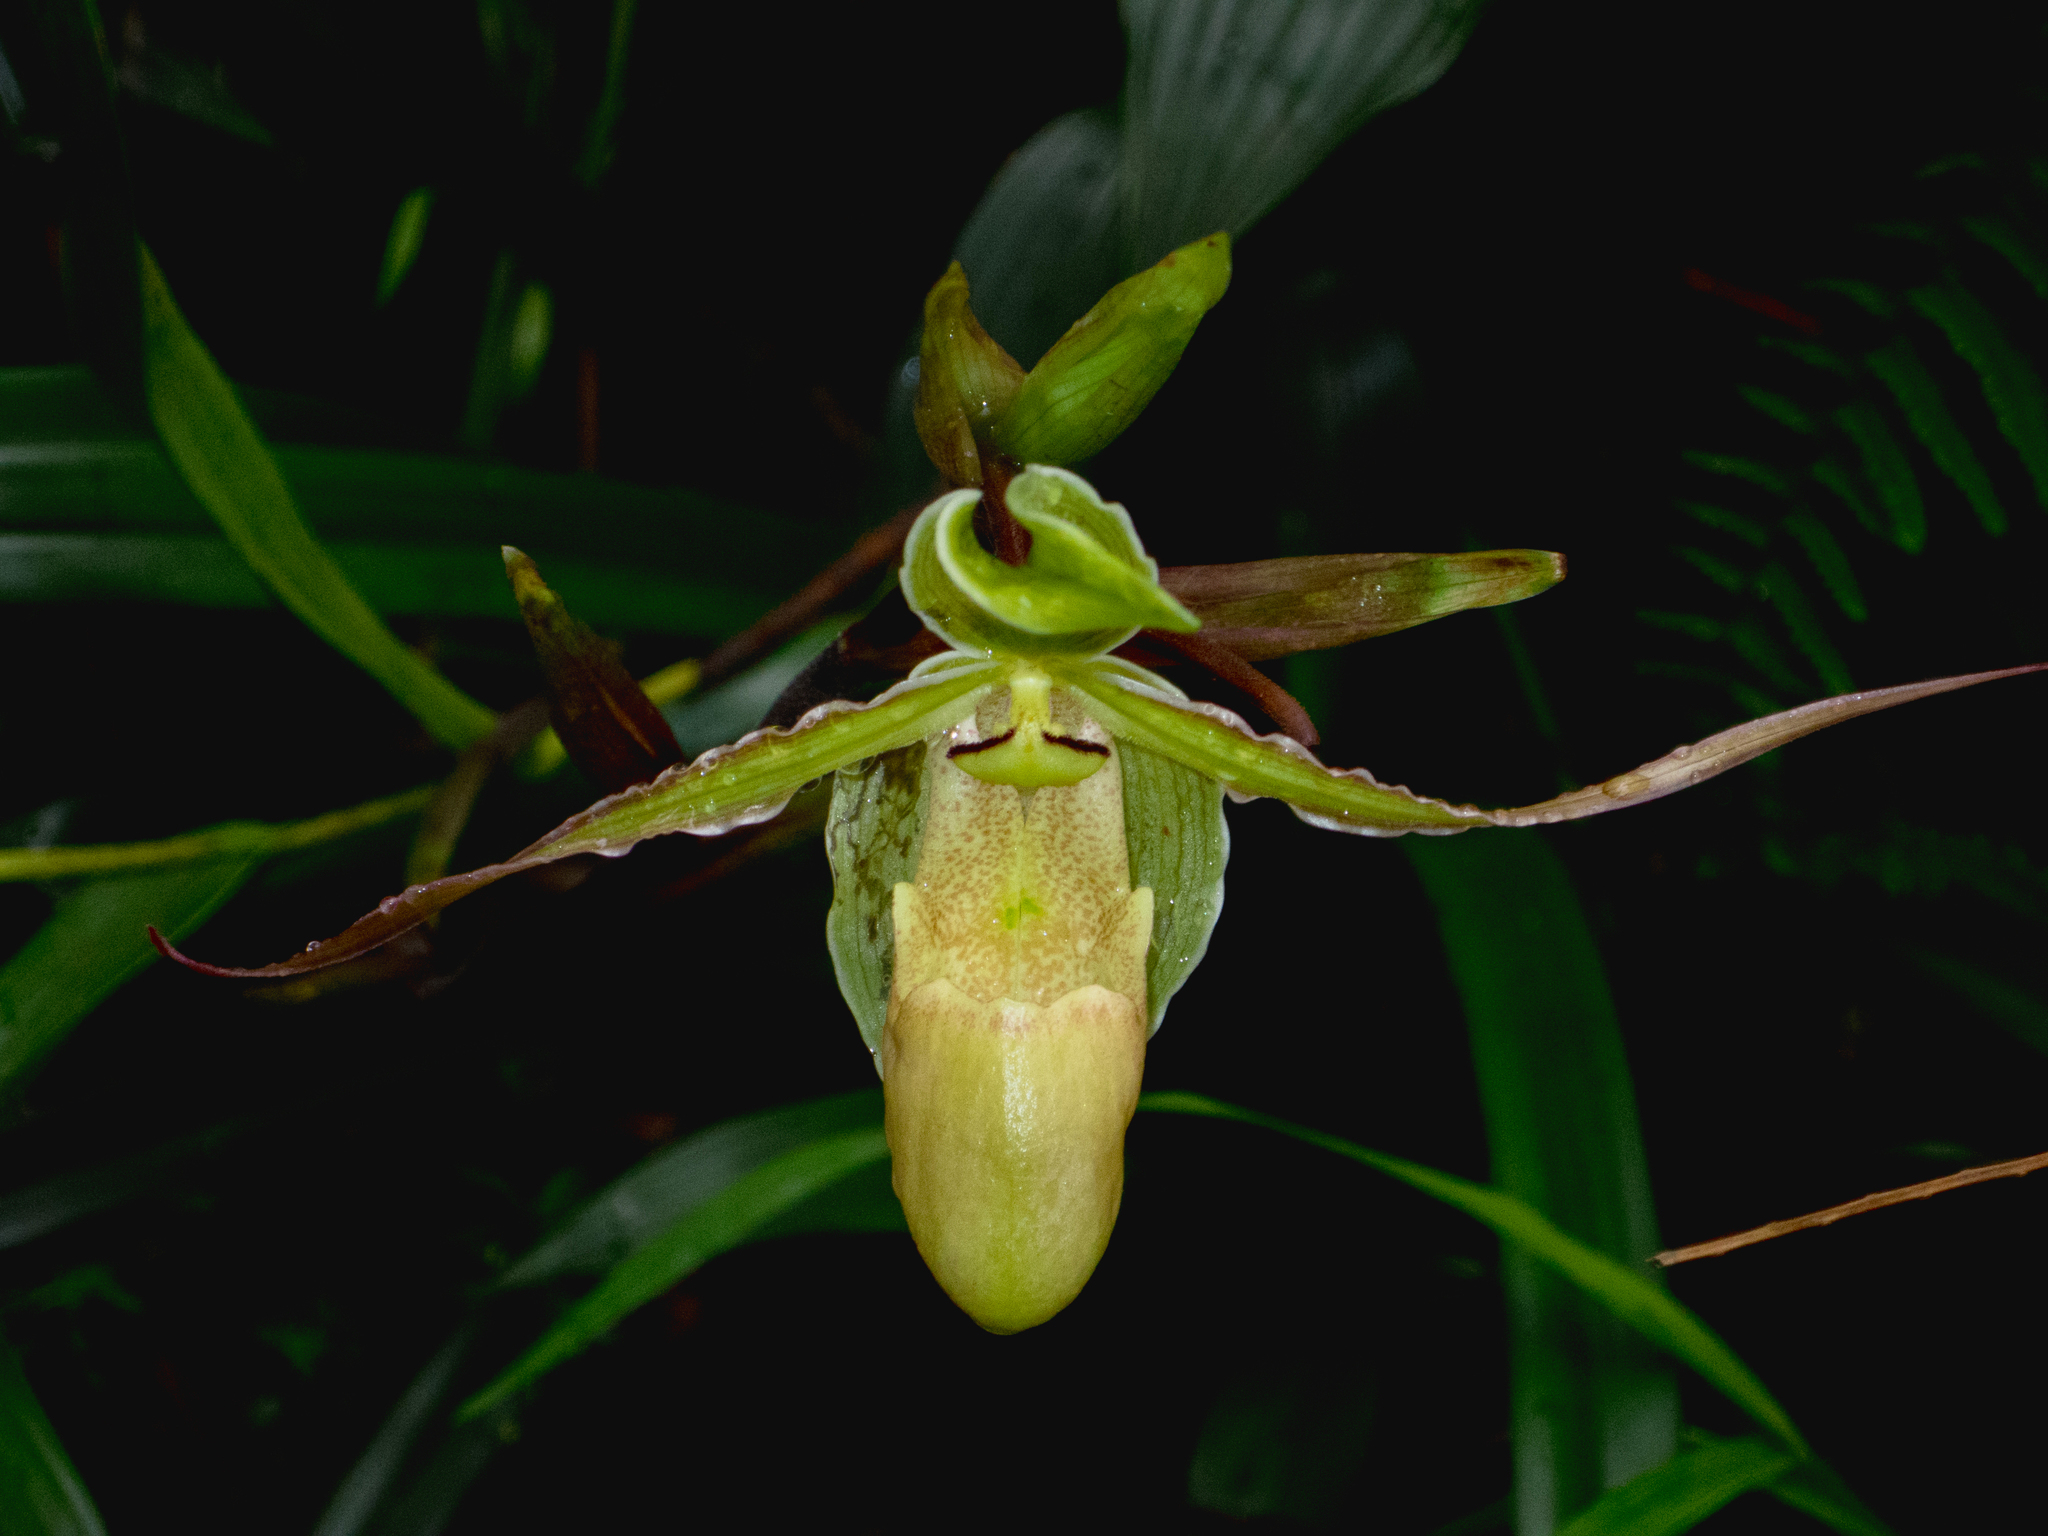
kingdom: Plantae
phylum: Tracheophyta
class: Liliopsida
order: Asparagales
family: Orchidaceae
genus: Phragmipedium
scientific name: Phragmipedium longifolium
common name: Long-leaf phragmipedium
